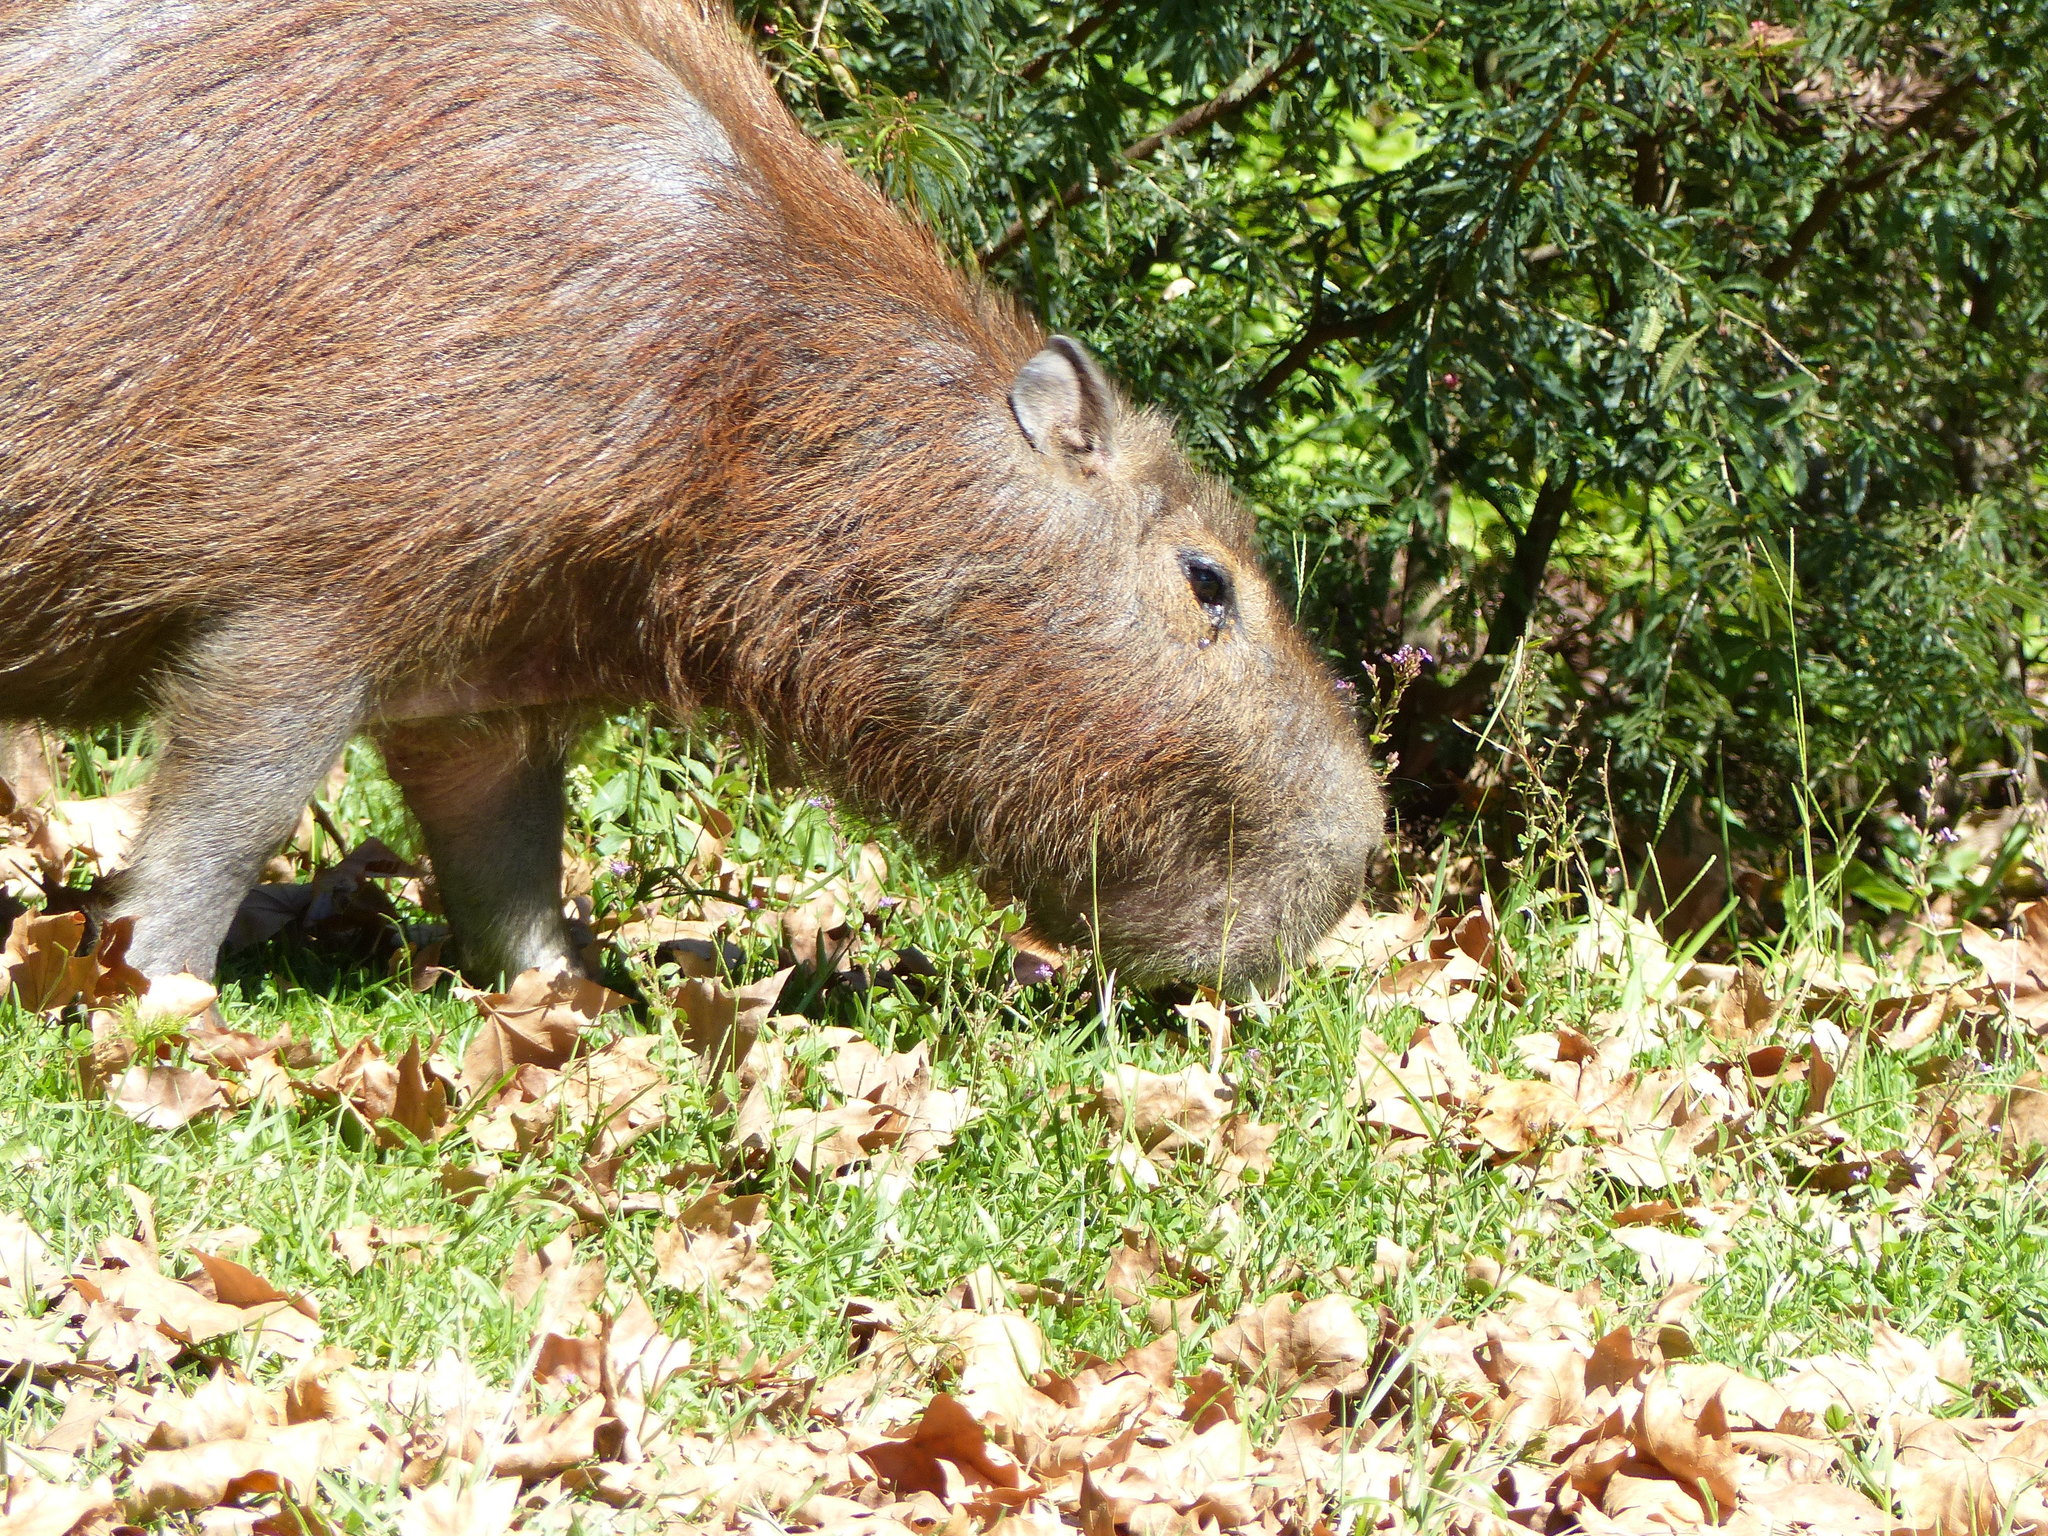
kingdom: Animalia
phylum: Chordata
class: Mammalia
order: Rodentia
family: Caviidae
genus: Hydrochoerus
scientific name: Hydrochoerus hydrochaeris
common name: Capybara
